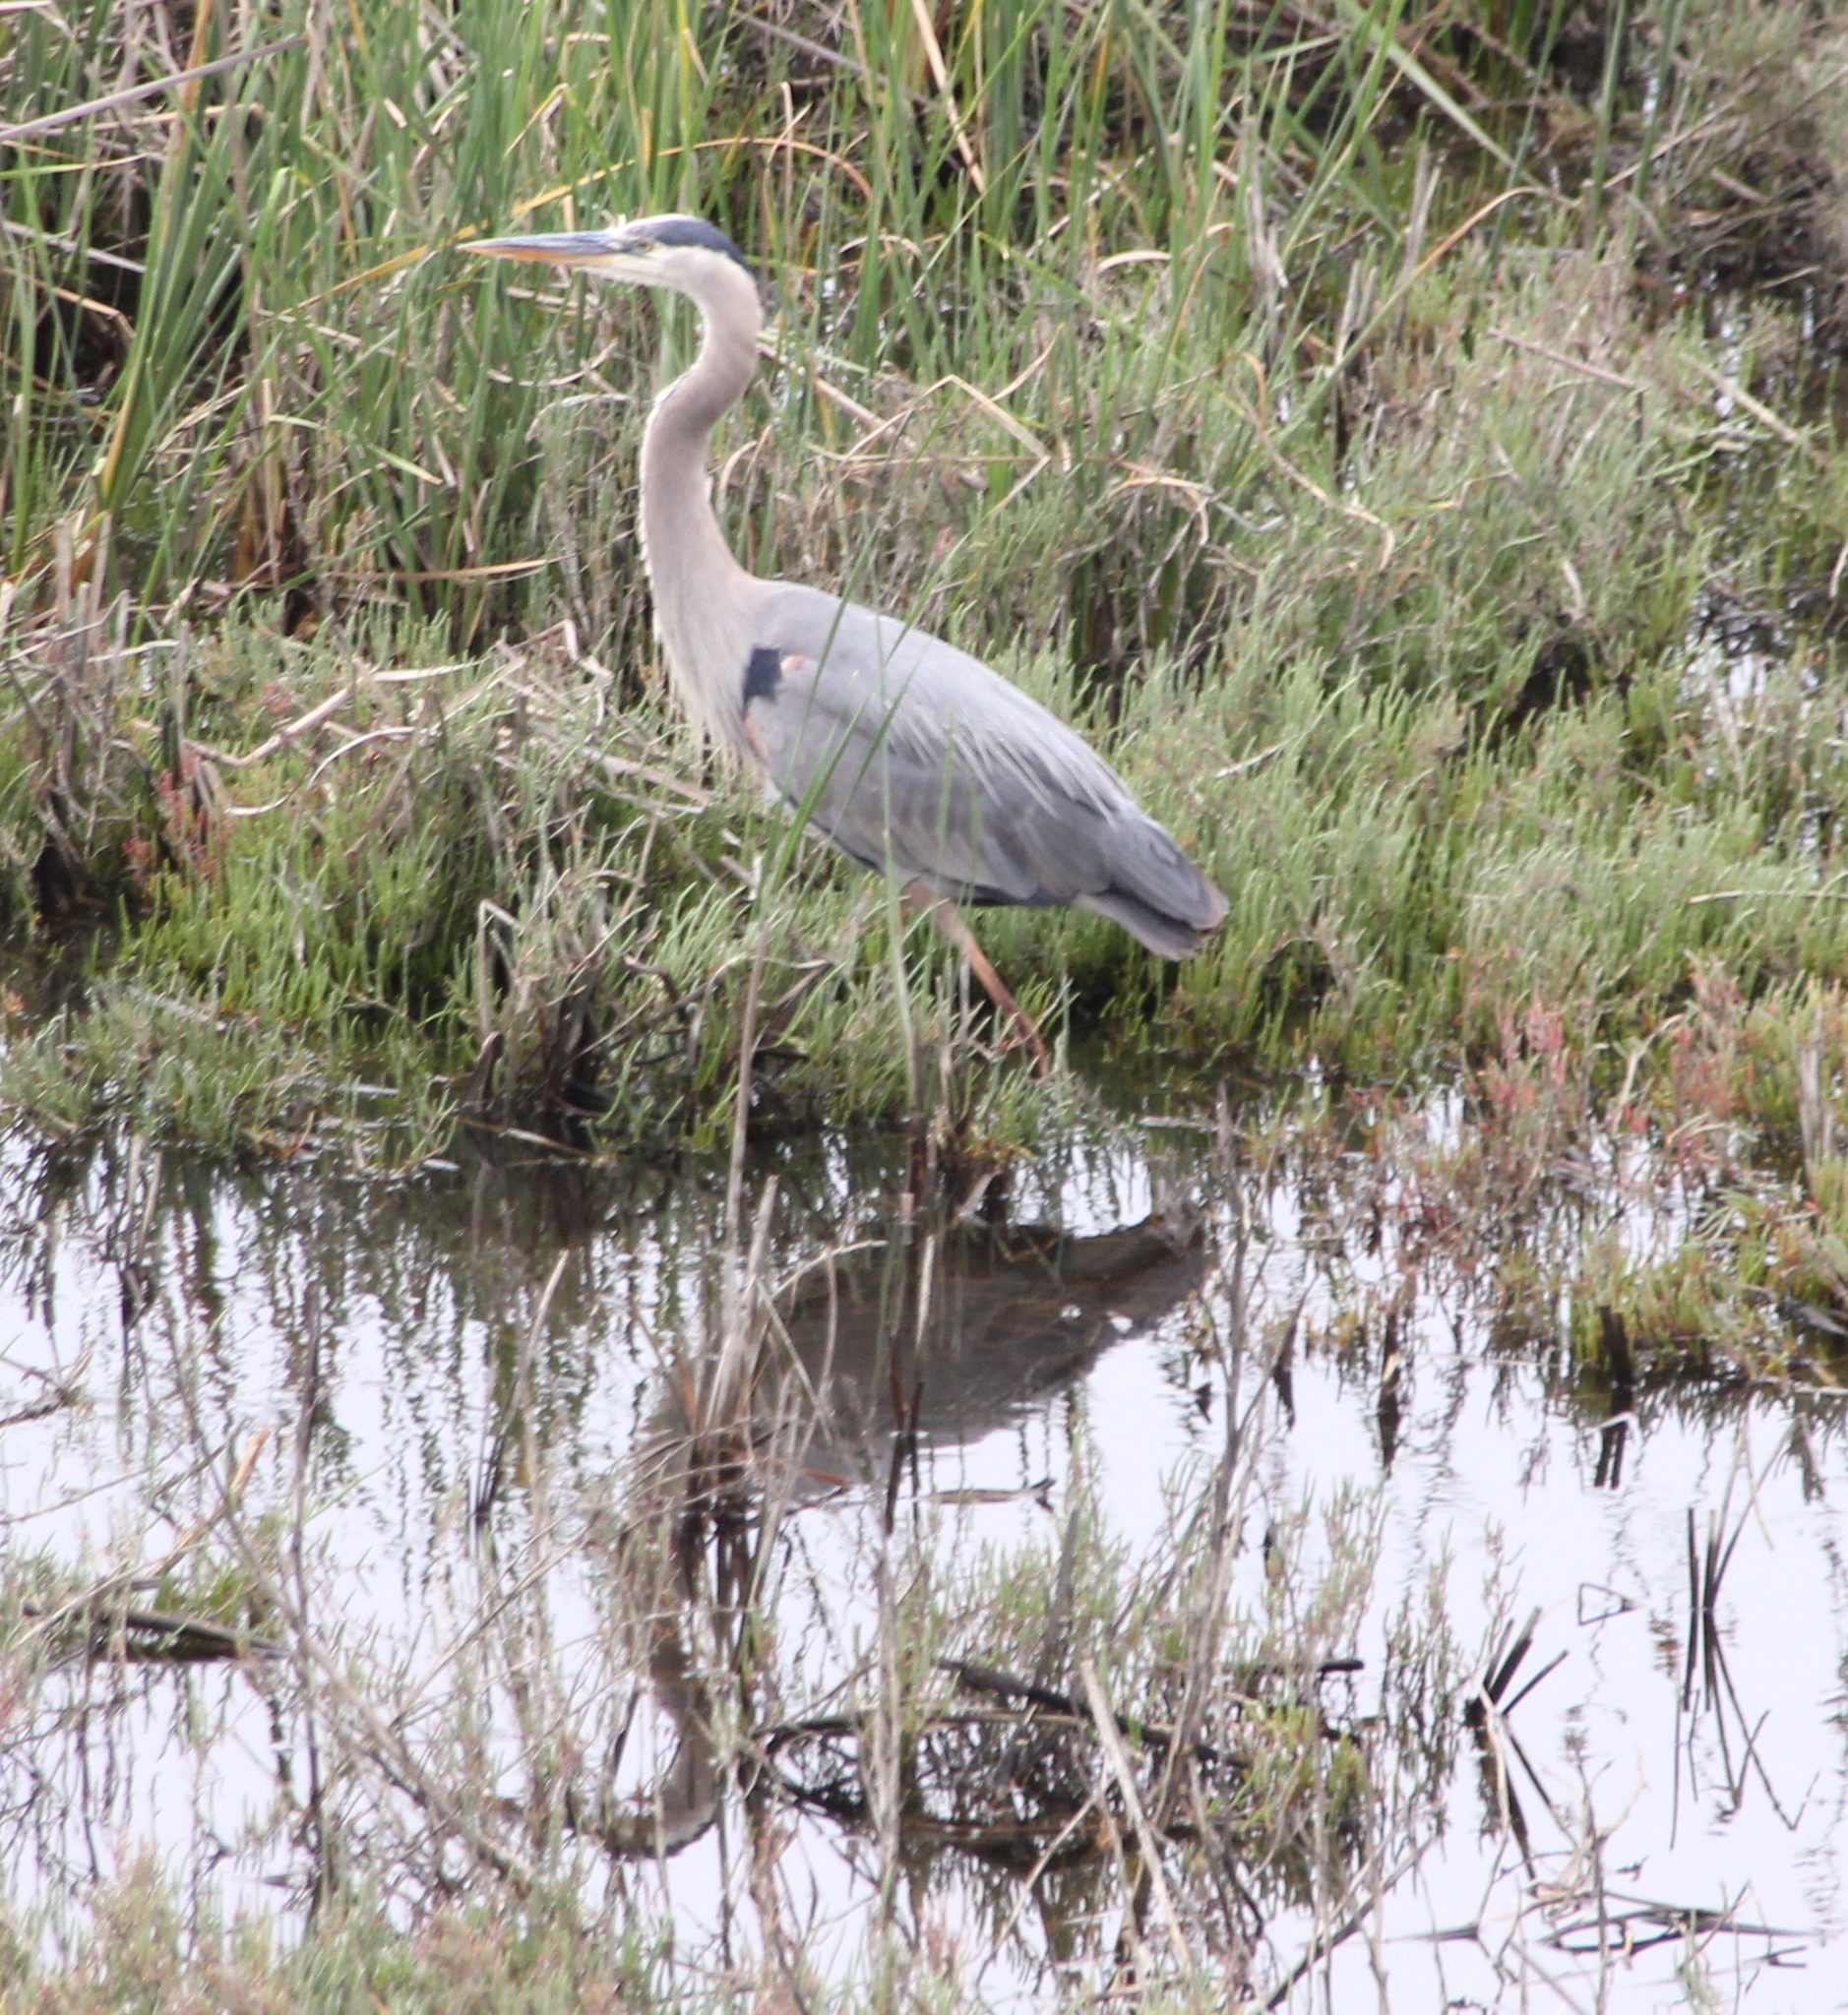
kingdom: Animalia
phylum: Chordata
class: Aves
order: Pelecaniformes
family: Ardeidae
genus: Ardea
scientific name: Ardea herodias
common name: Great blue heron
